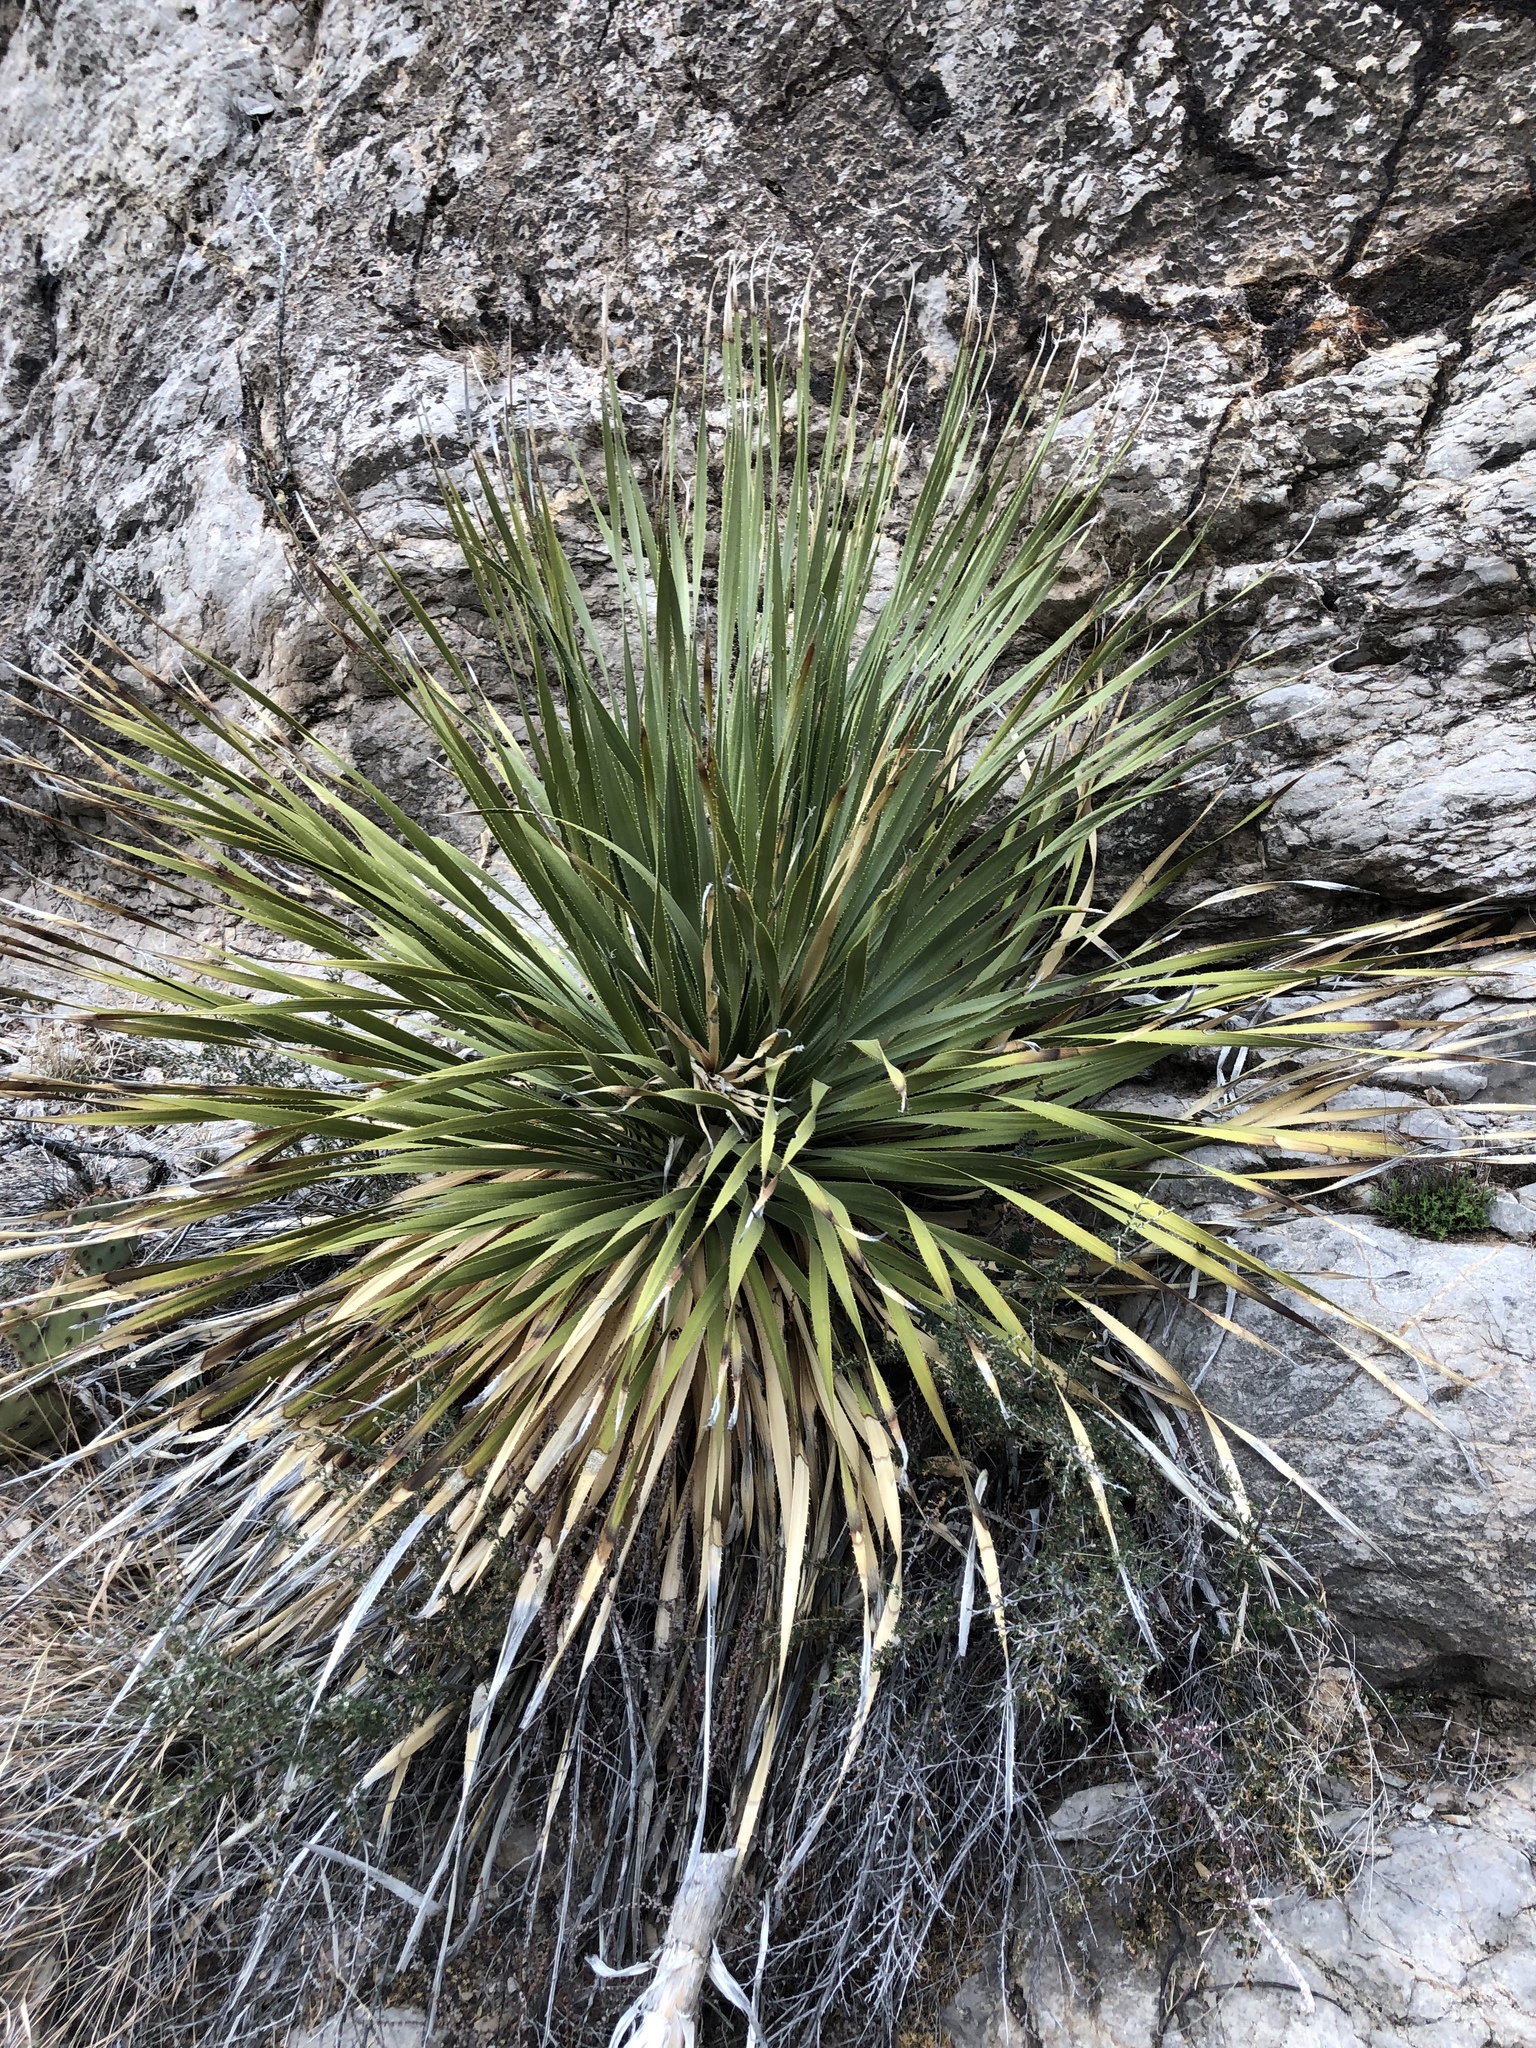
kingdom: Plantae
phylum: Tracheophyta
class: Liliopsida
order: Asparagales
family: Asparagaceae
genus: Dasylirion
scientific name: Dasylirion wheeleri
